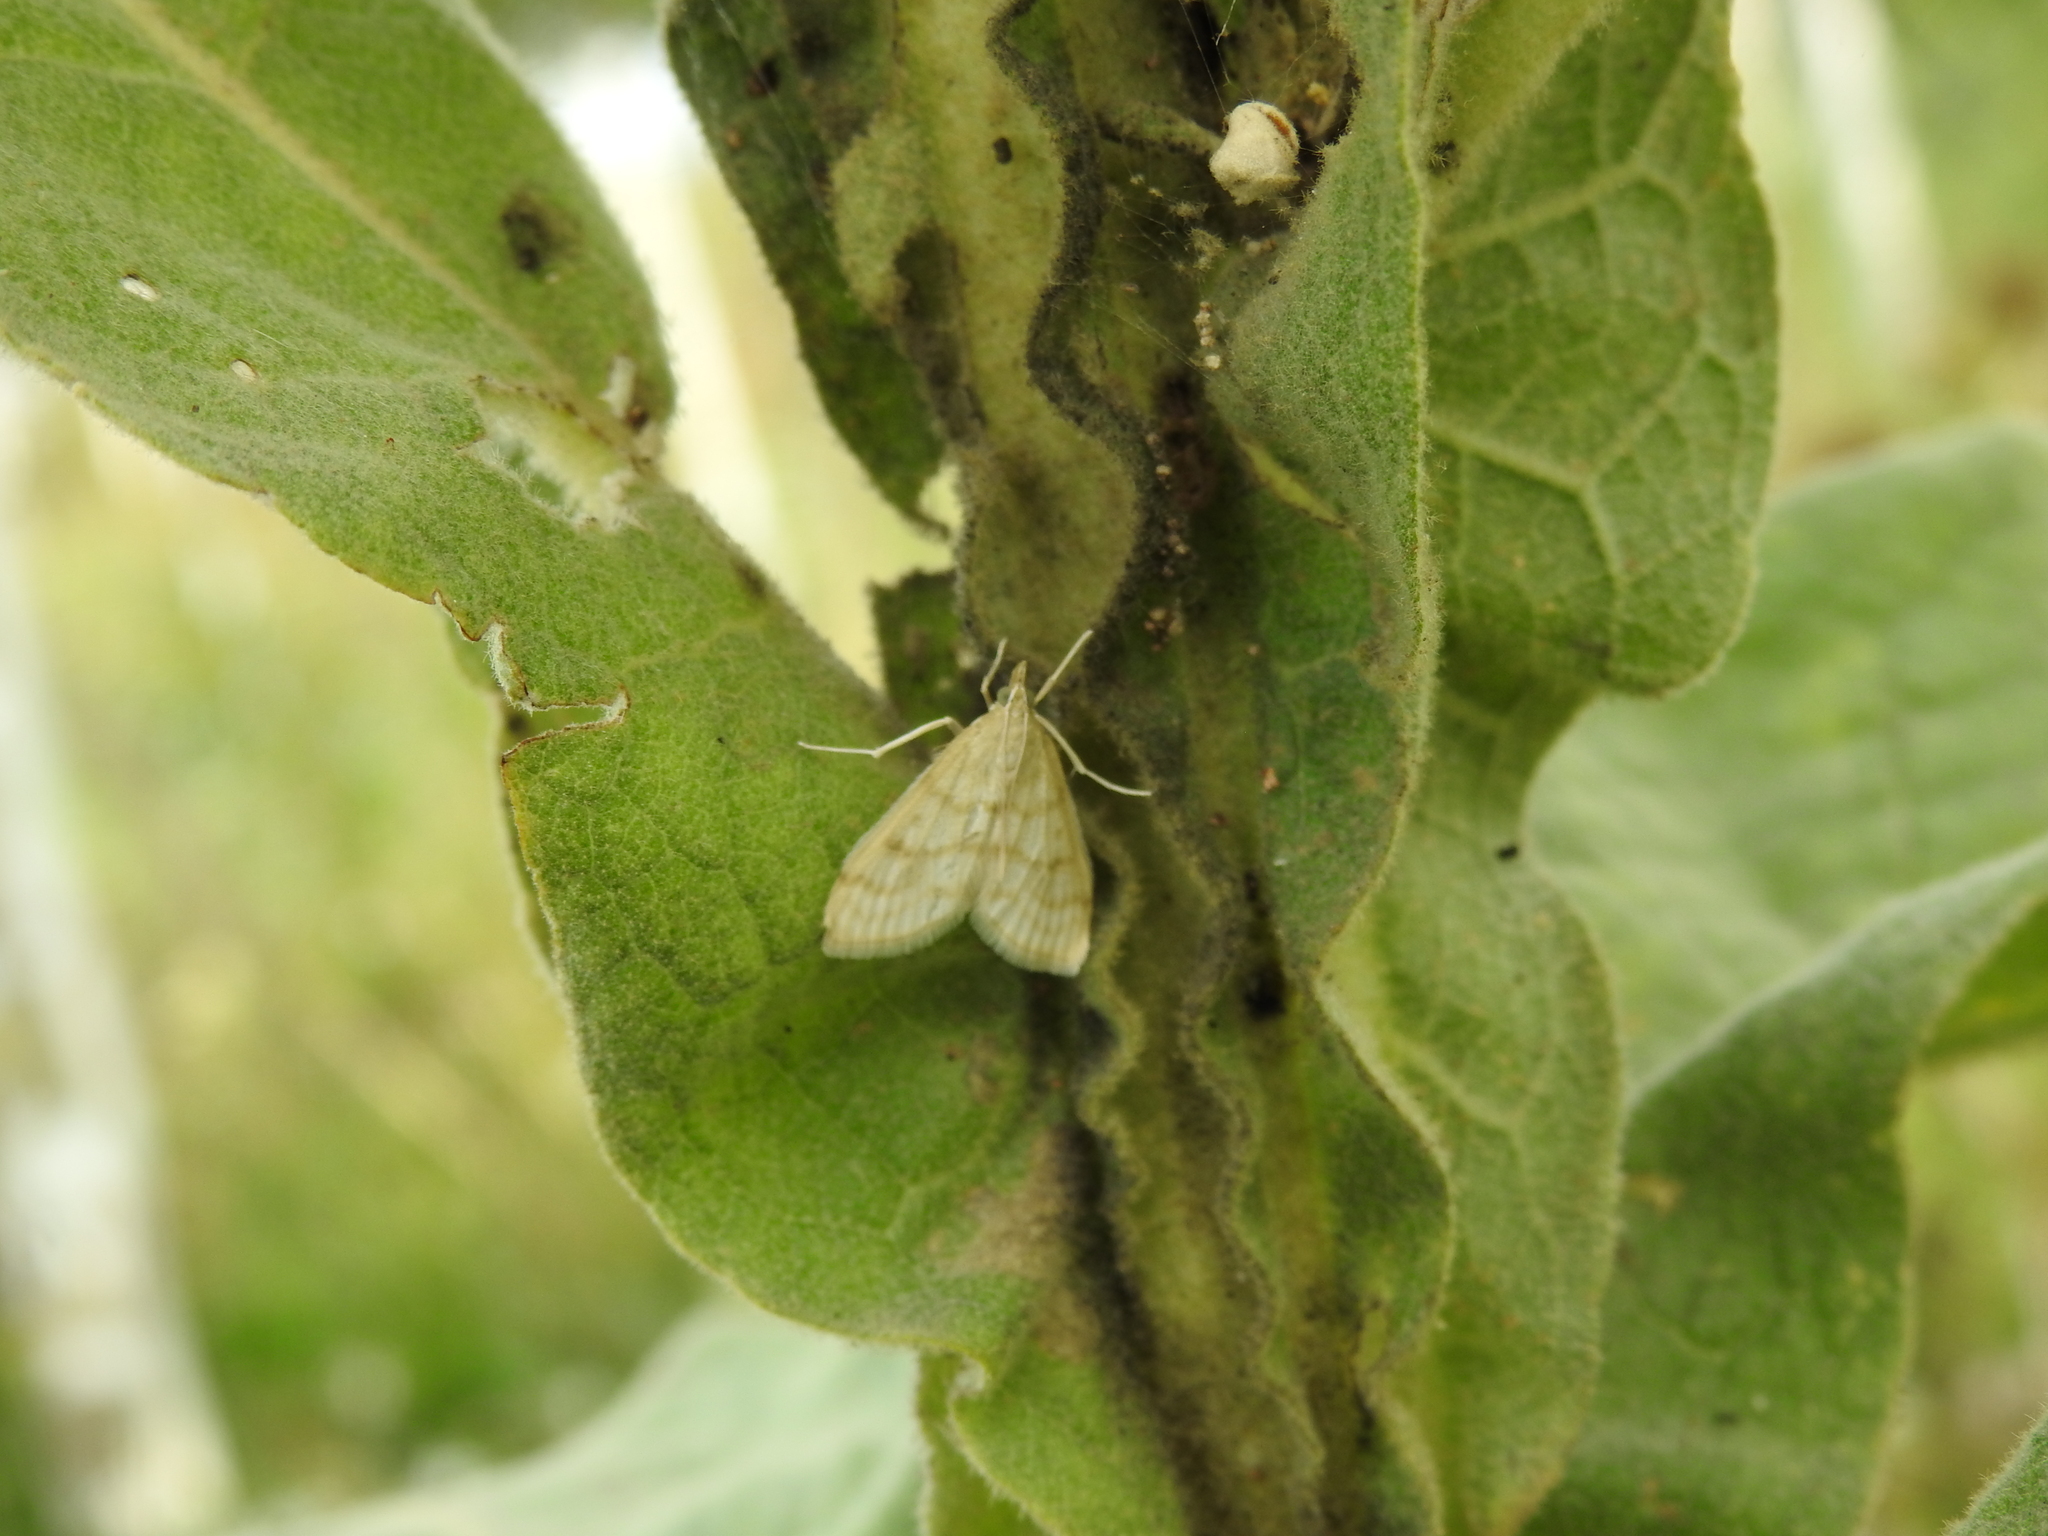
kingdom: Animalia
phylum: Arthropoda
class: Insecta
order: Lepidoptera
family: Crambidae
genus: Paracorsia
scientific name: Paracorsia repandalis
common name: Mullein moth
